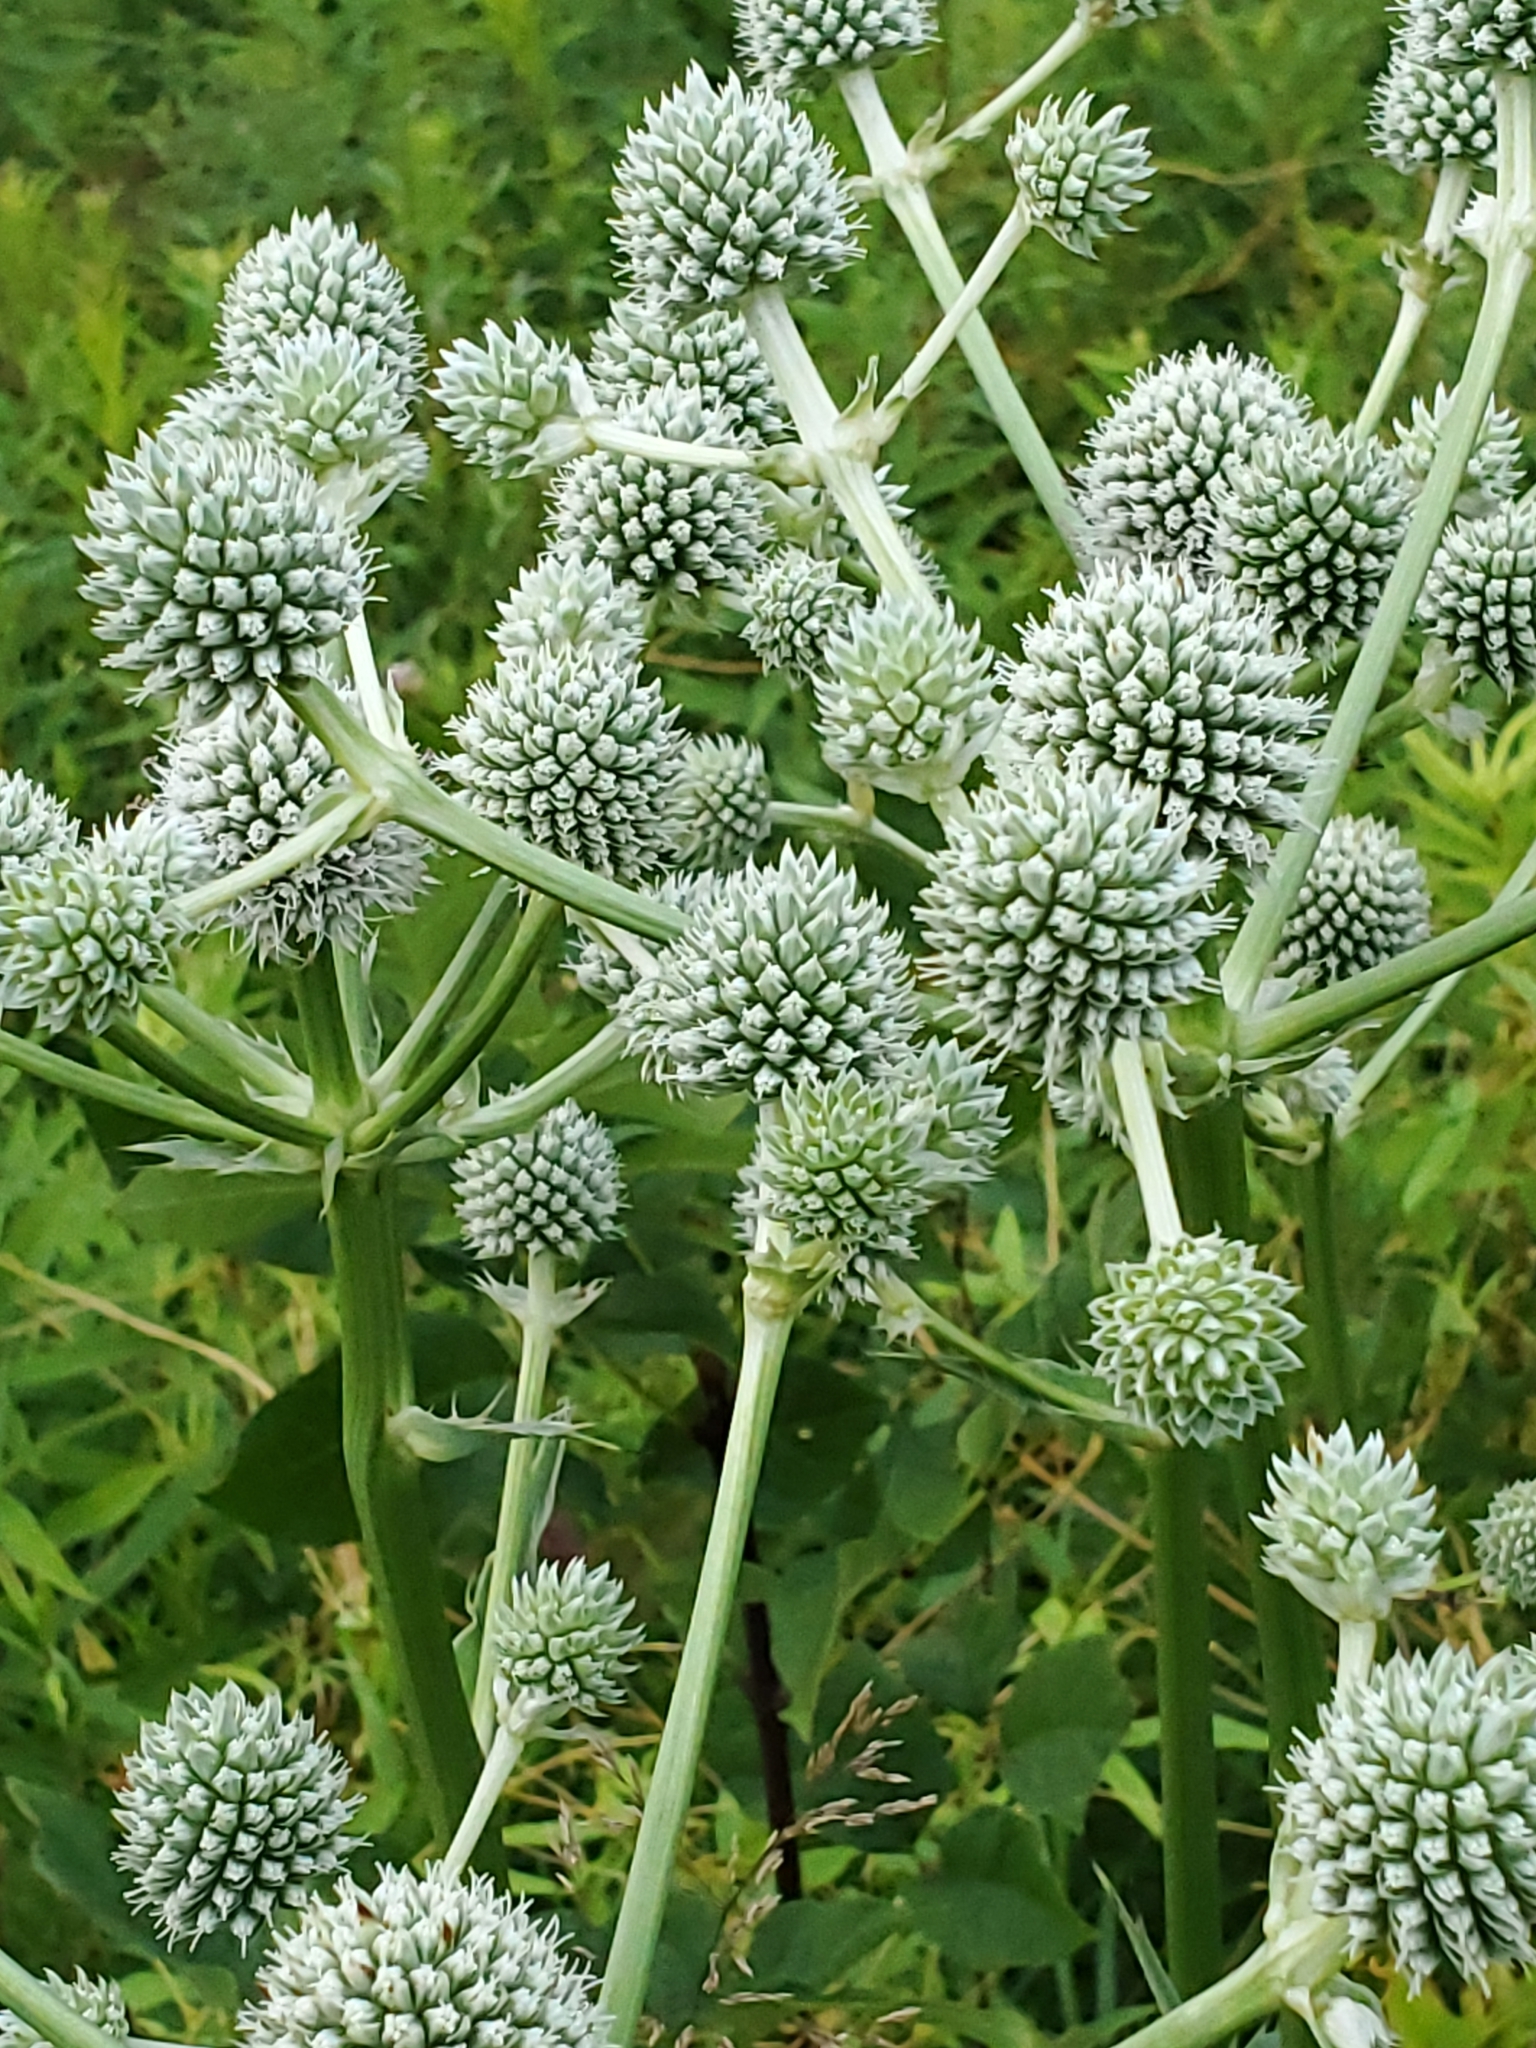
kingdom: Plantae
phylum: Tracheophyta
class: Magnoliopsida
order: Apiales
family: Apiaceae
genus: Eryngium
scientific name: Eryngium yuccifolium
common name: Button eryngo
